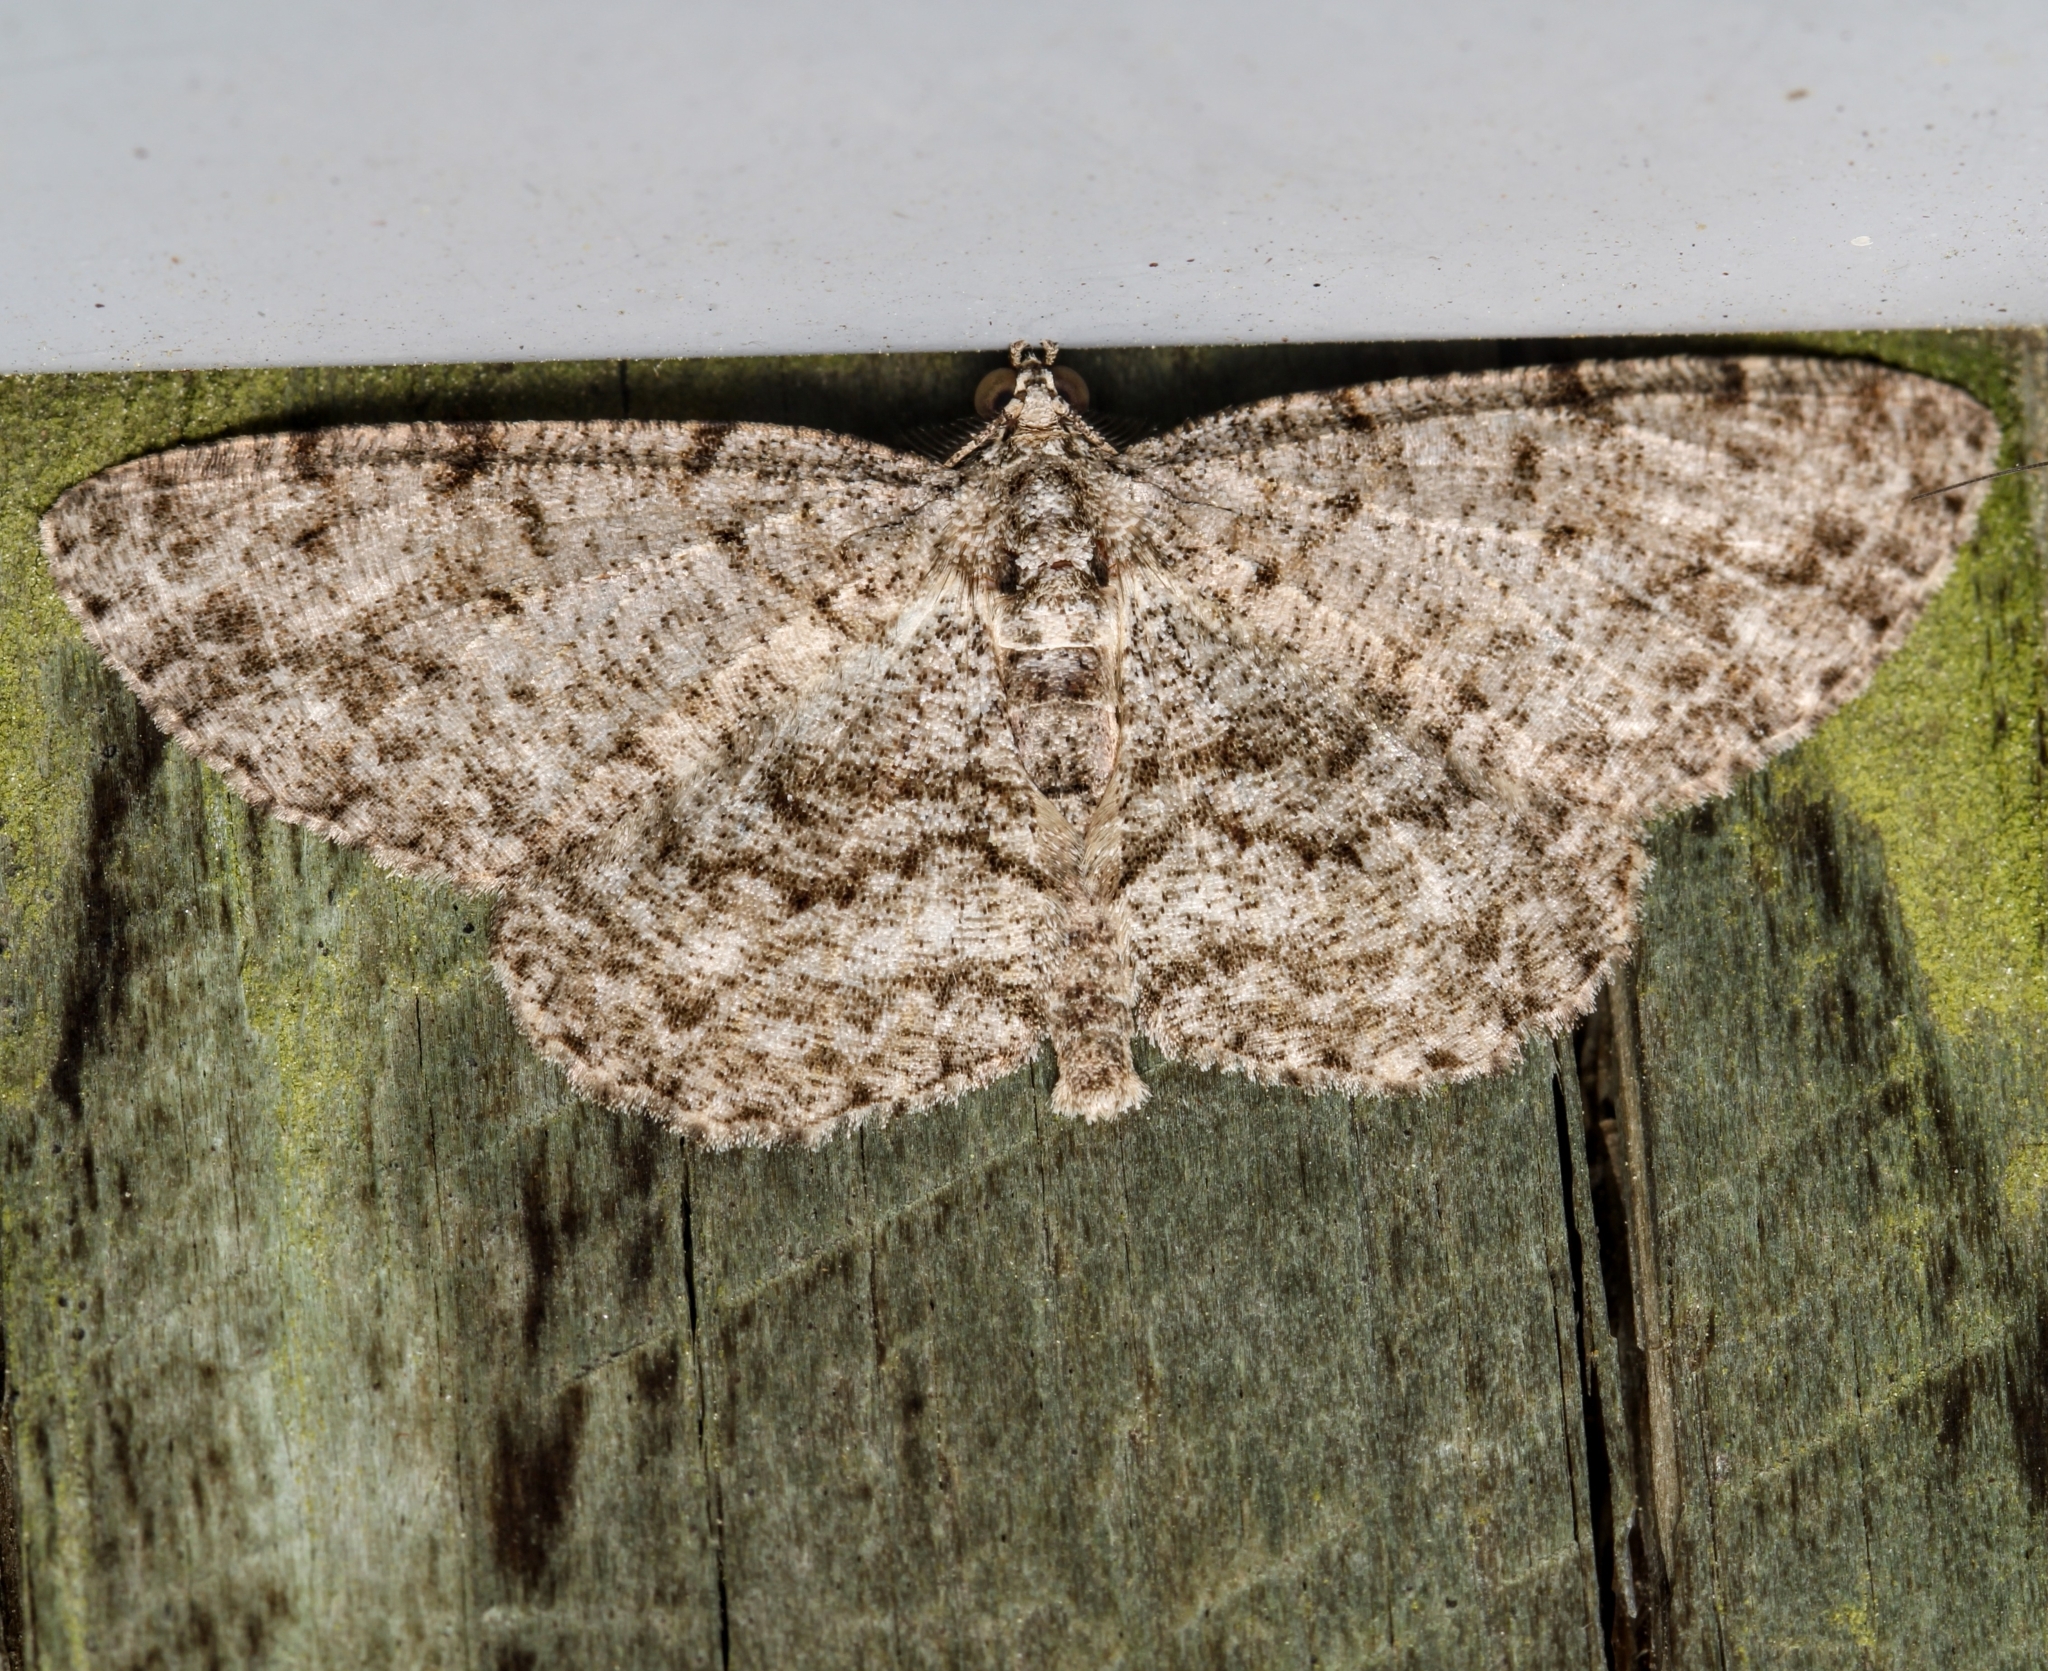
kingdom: Animalia
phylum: Arthropoda
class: Insecta
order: Lepidoptera
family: Geometridae
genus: Protoboarmia
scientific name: Protoboarmia porcelaria
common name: Porcelain gray
